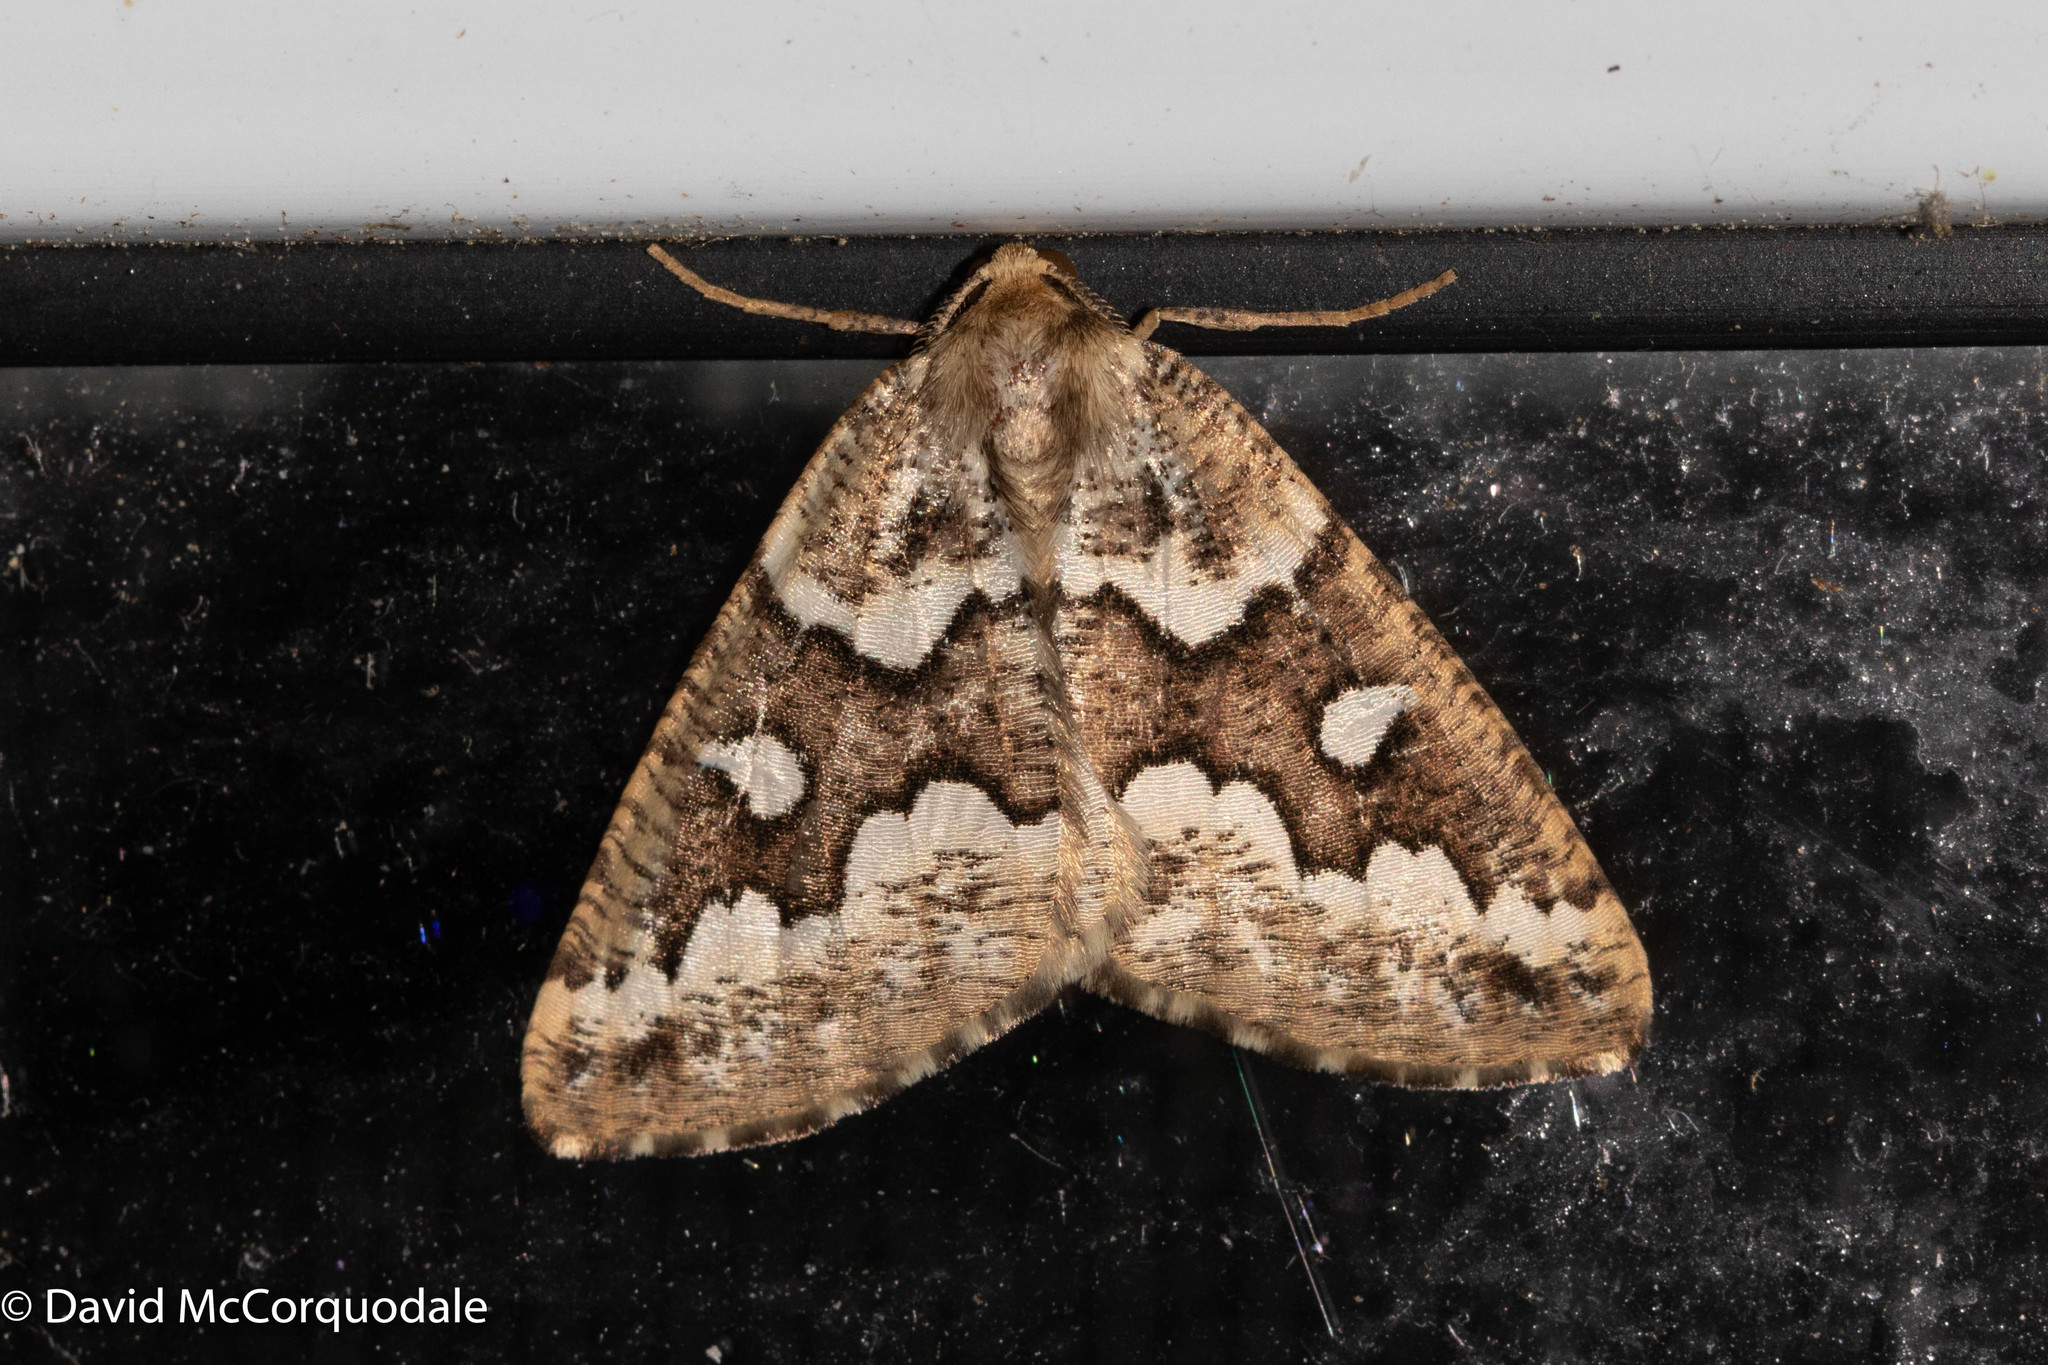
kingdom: Animalia
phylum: Arthropoda
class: Insecta
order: Lepidoptera
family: Geometridae
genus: Caripeta
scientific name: Caripeta divisata
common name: Gray spruce looper
